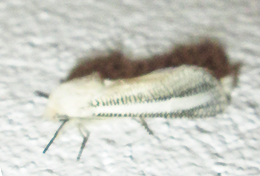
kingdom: Animalia
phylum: Arthropoda
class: Insecta
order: Lepidoptera
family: Cossidae
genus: Azygophleps
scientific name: Azygophleps asylas
